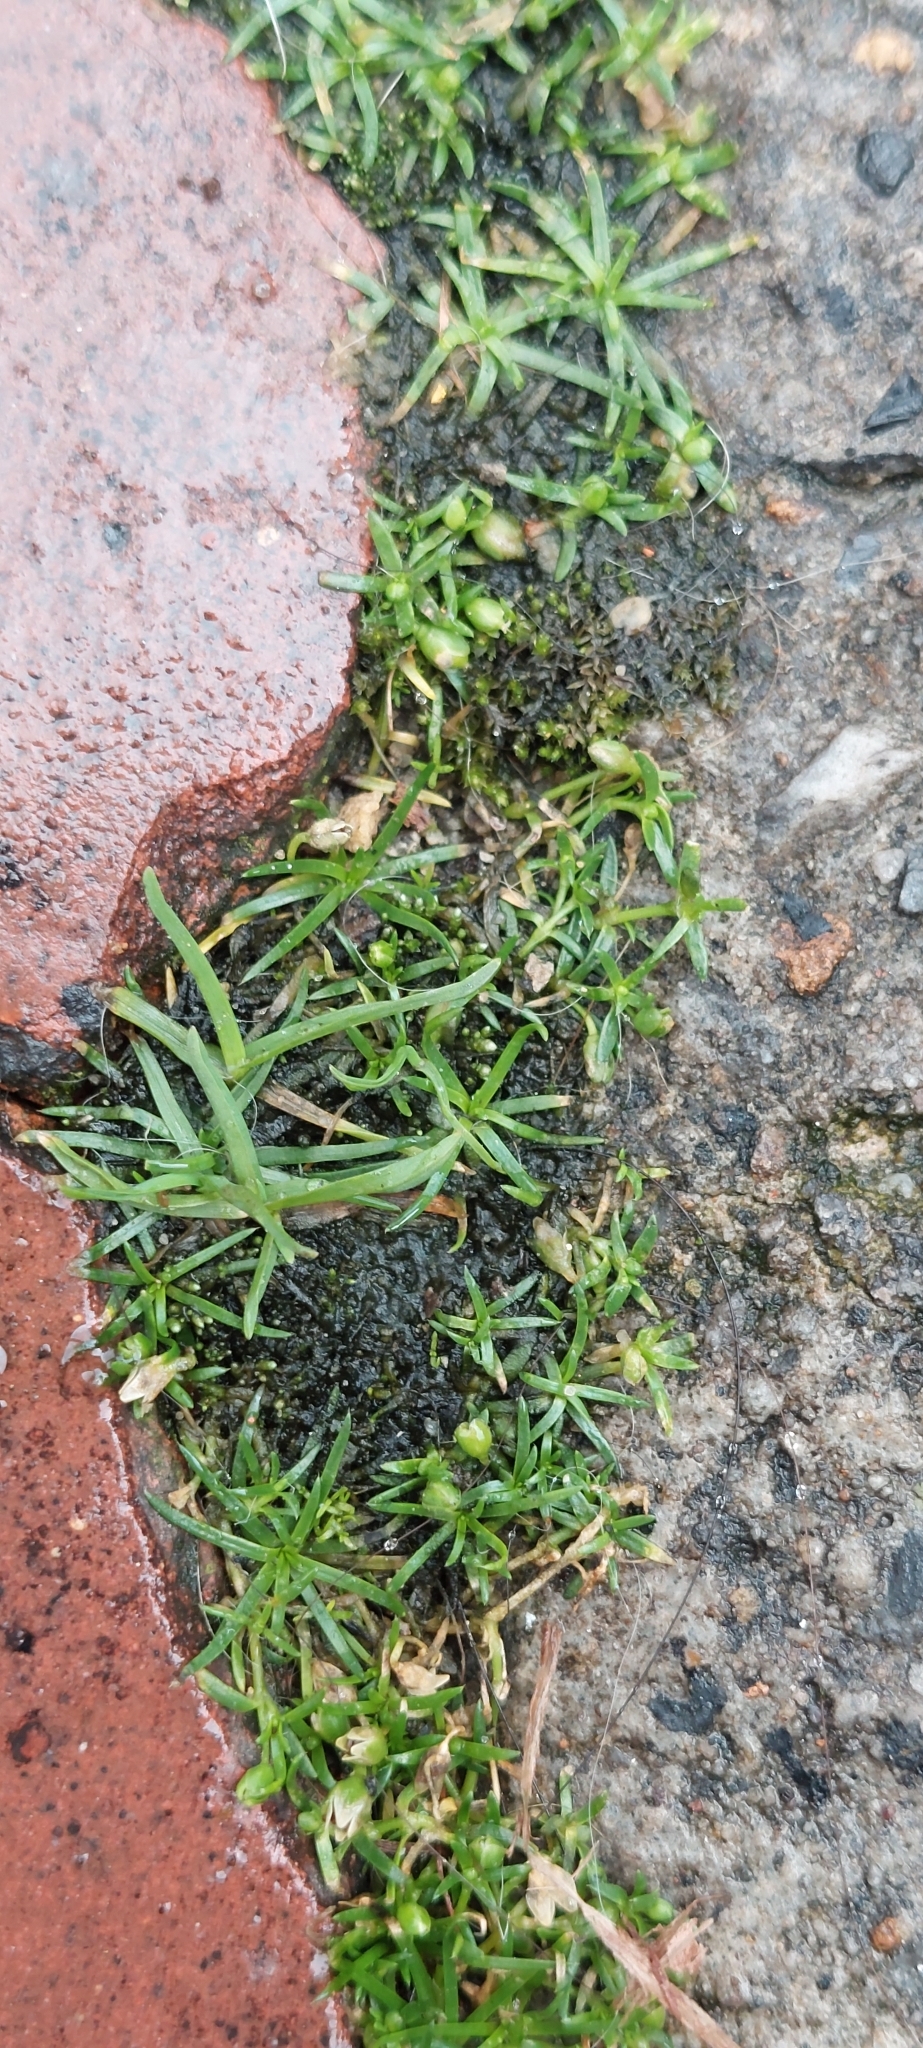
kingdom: Plantae
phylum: Tracheophyta
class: Magnoliopsida
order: Caryophyllales
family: Caryophyllaceae
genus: Sagina
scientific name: Sagina procumbens
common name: Procumbent pearlwort
